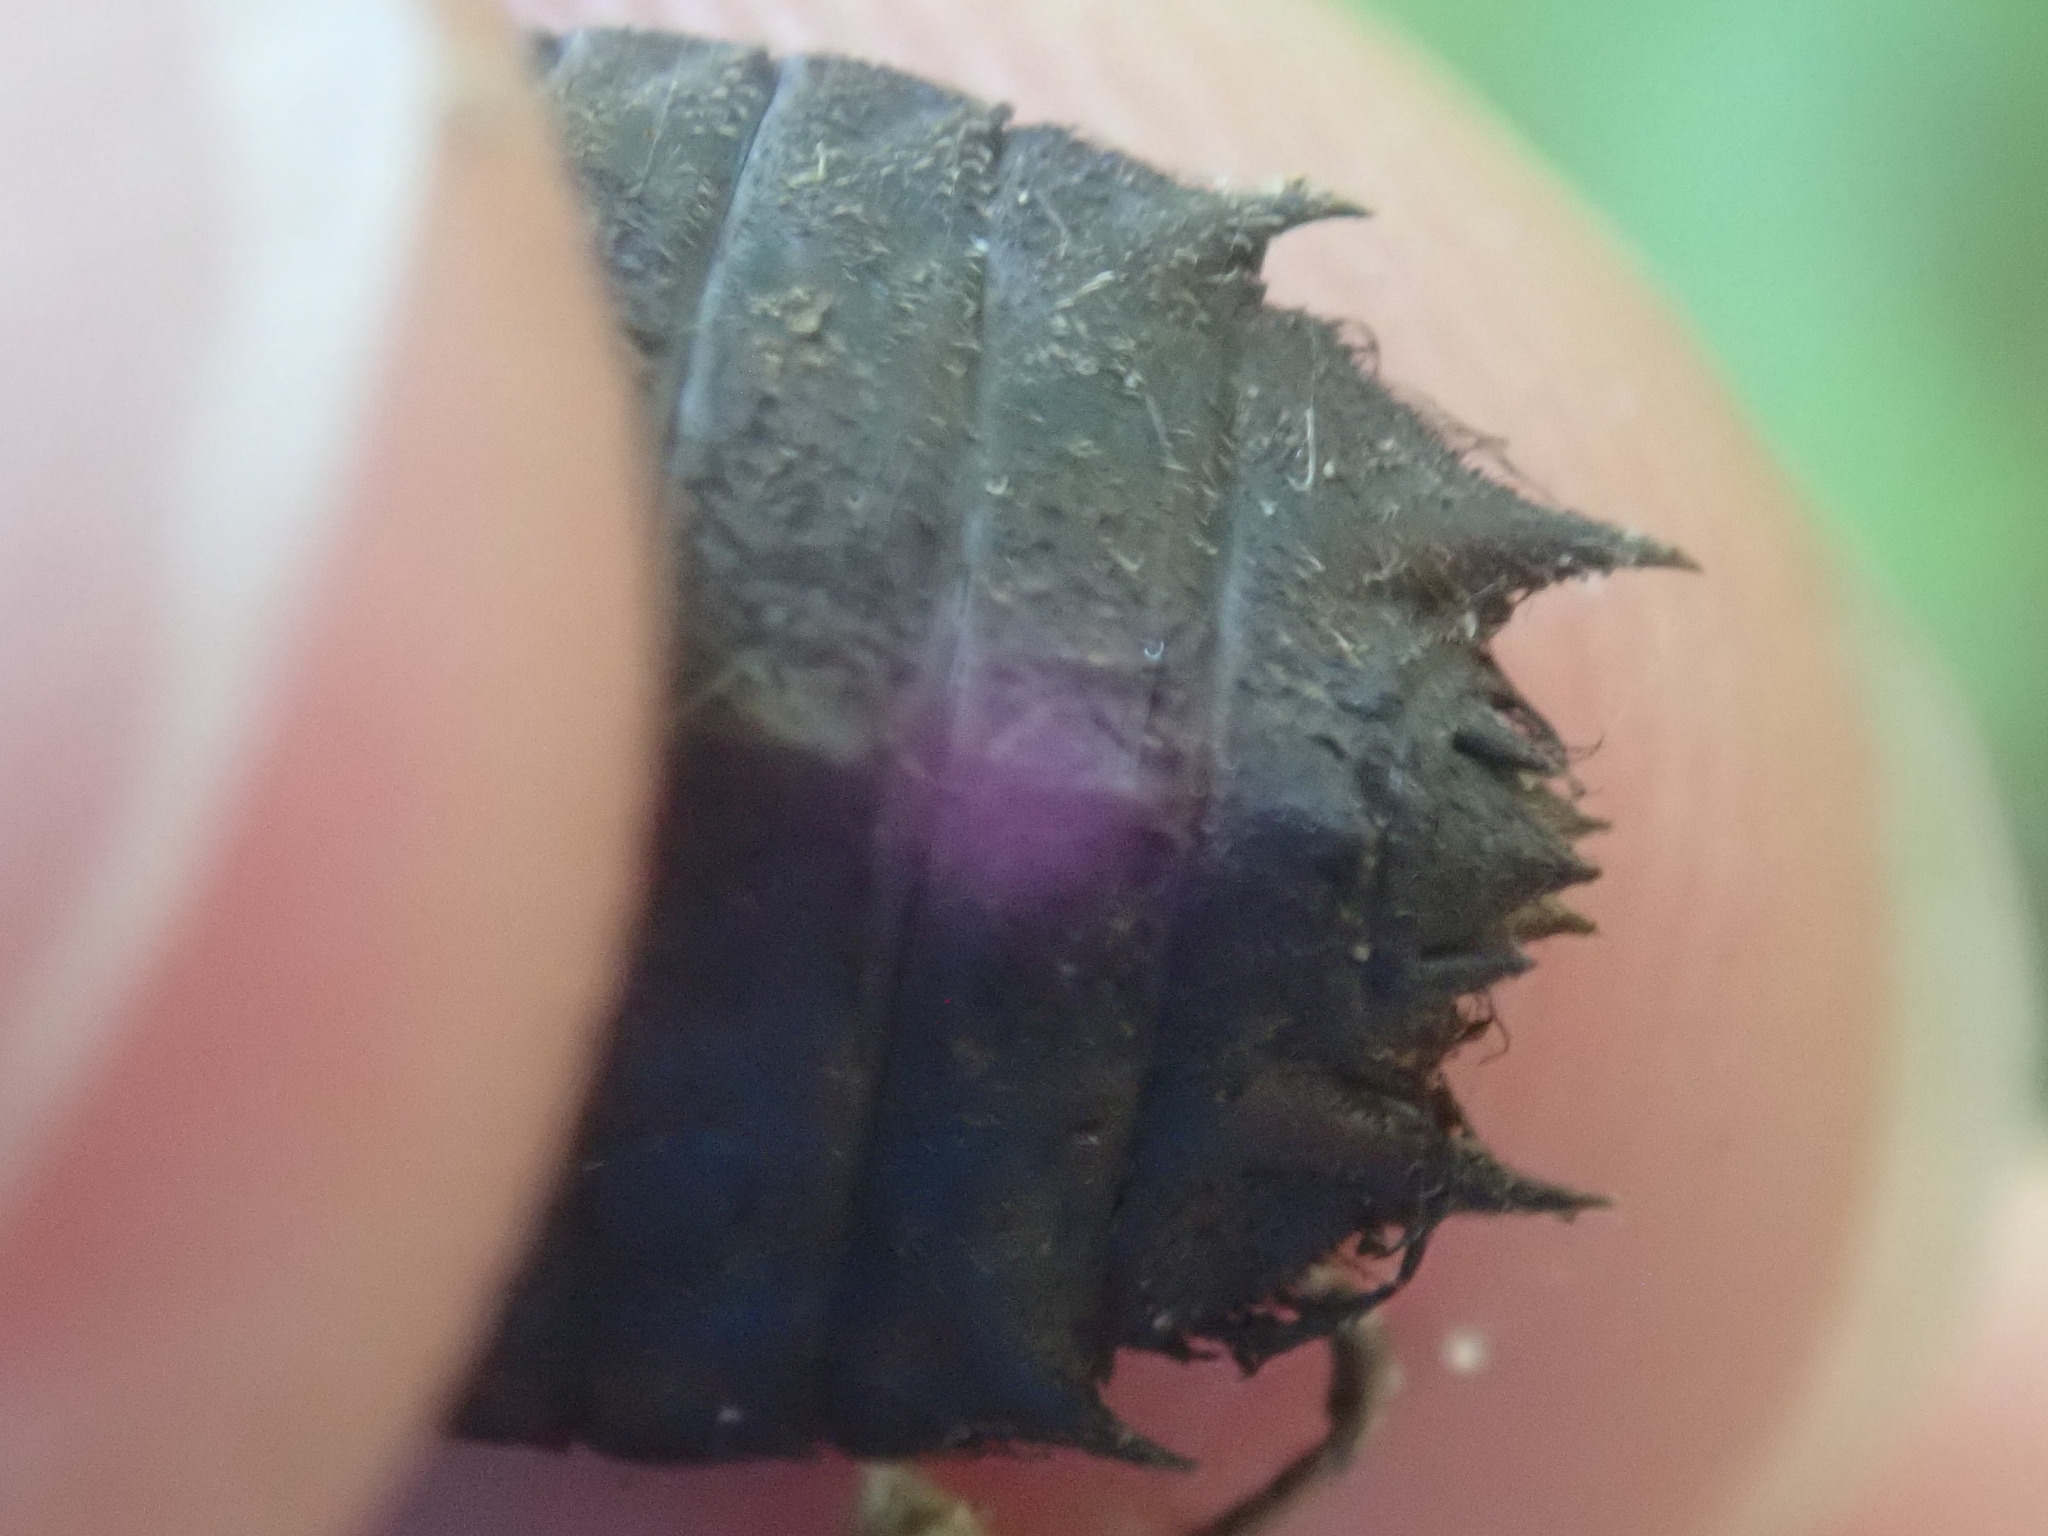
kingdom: Animalia
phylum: Arthropoda
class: Insecta
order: Odonata
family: Corduliidae
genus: Neurocordulia
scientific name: Neurocordulia yamaskanensis
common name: Stygian shadowdragon
